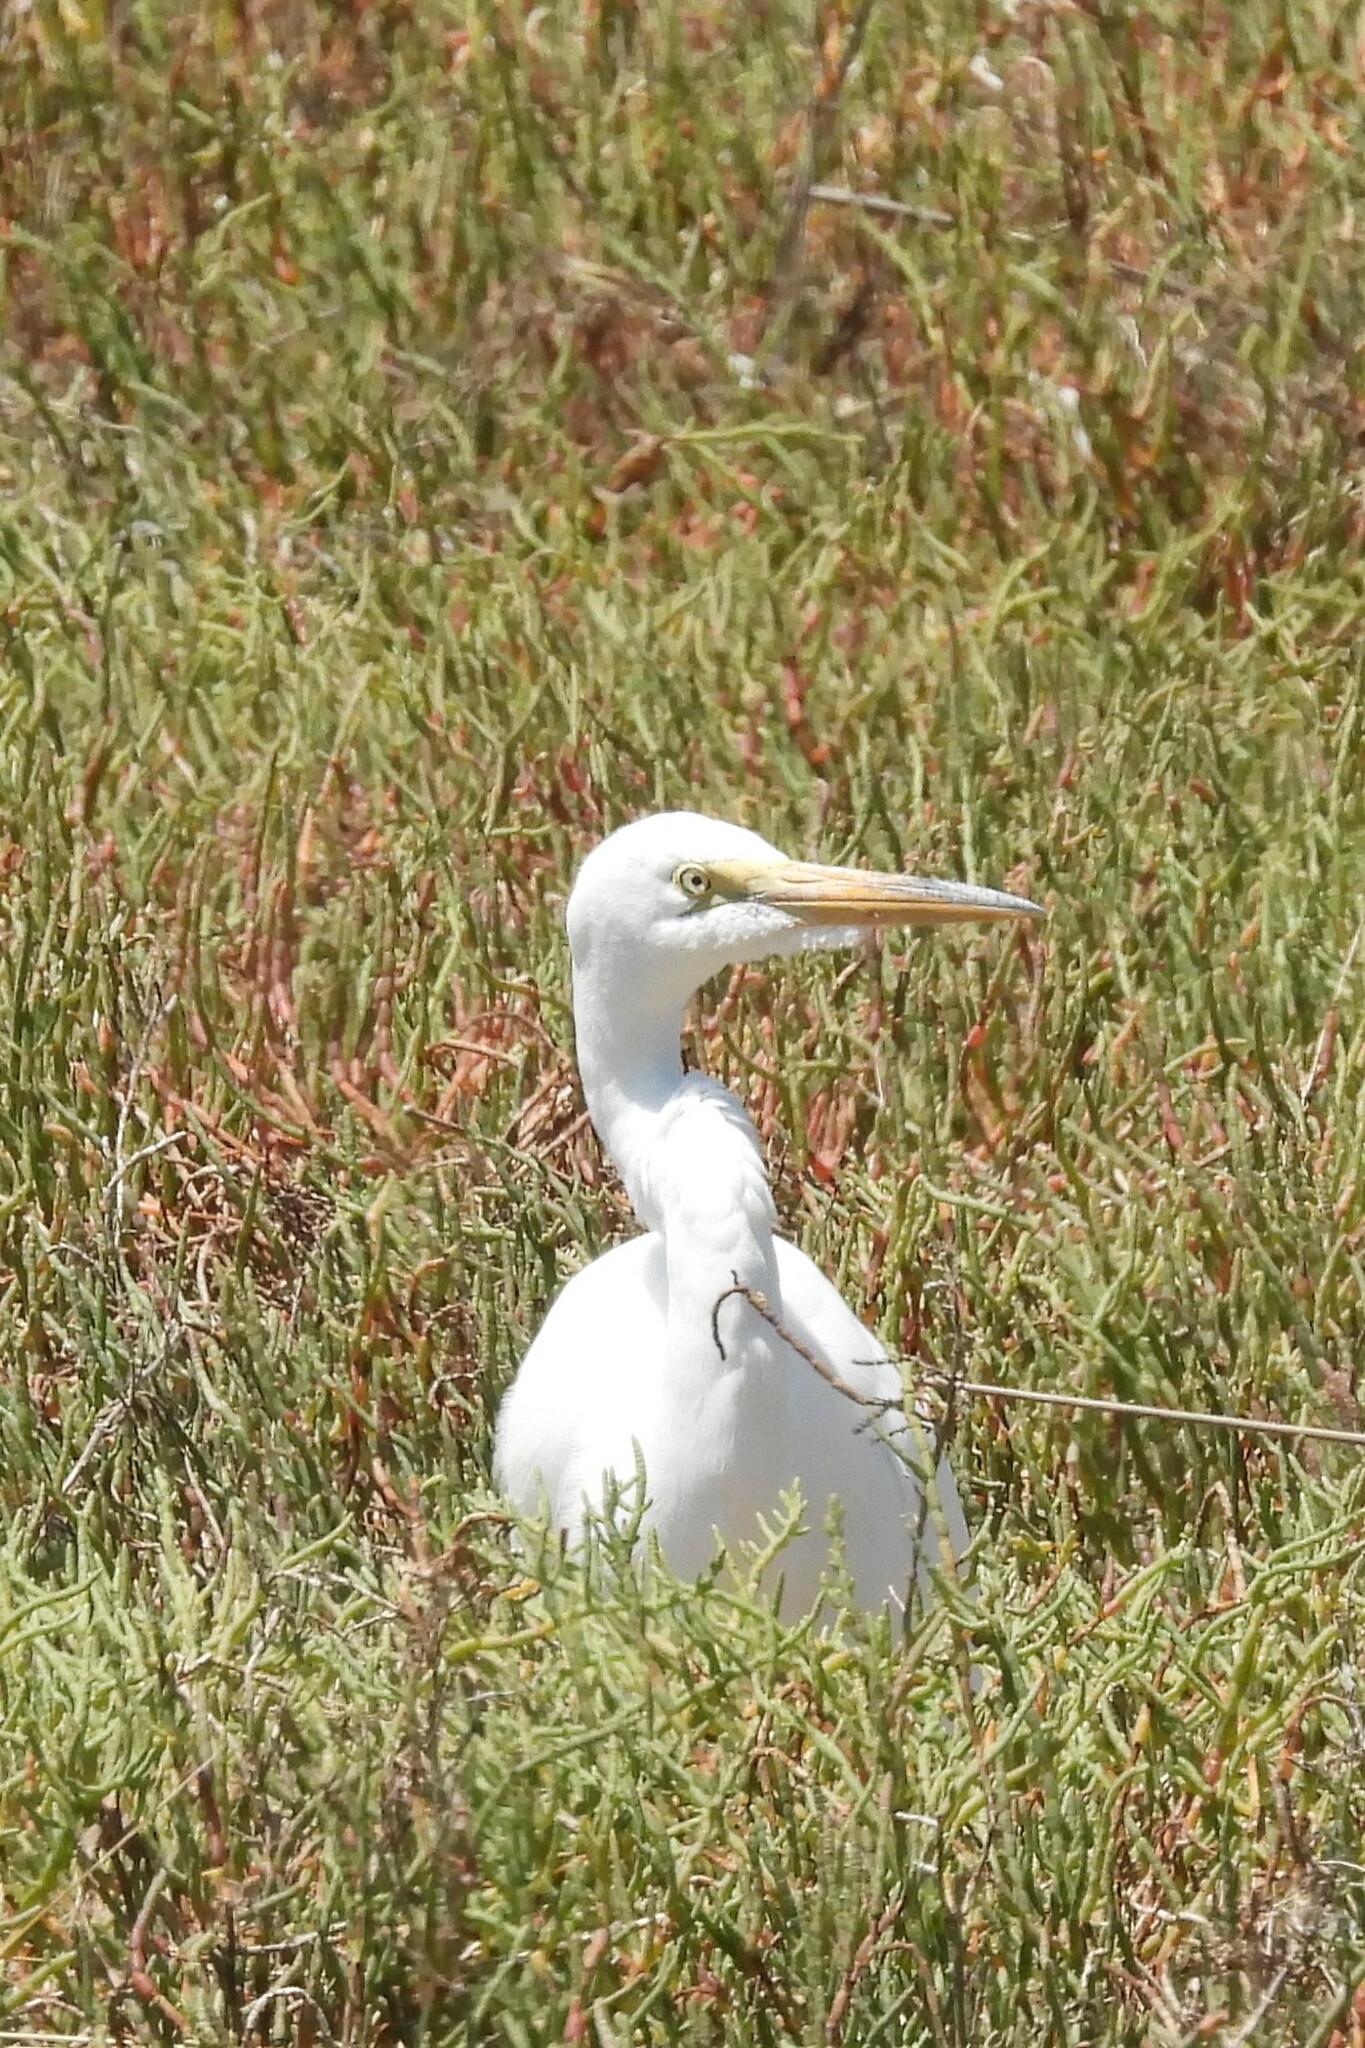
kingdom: Animalia
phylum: Chordata
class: Aves
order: Pelecaniformes
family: Ardeidae
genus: Ardea
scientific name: Ardea alba
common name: Great egret
